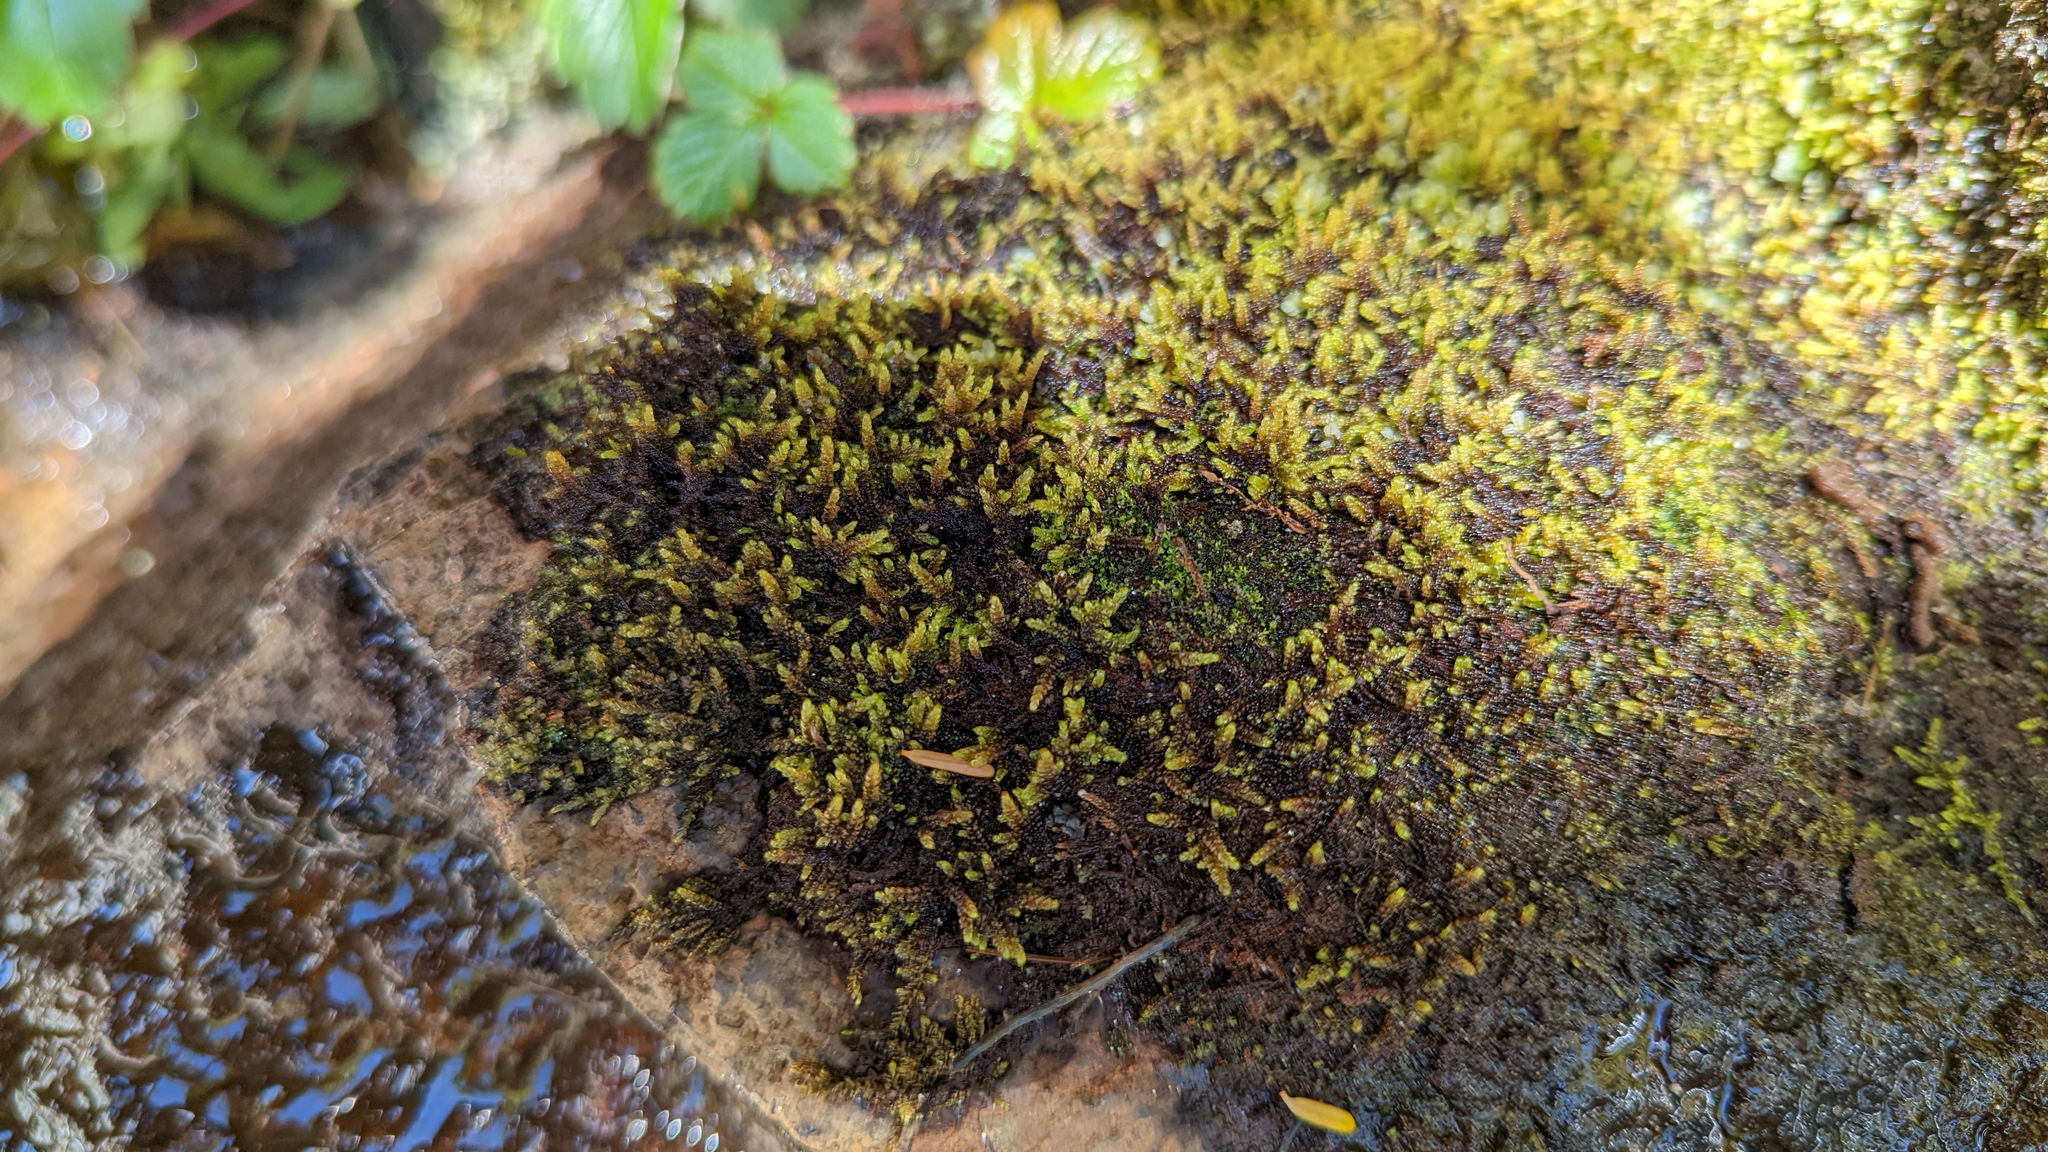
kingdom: Plantae
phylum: Bryophyta
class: Bryopsida
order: Hypnales
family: Pylaisiaceae
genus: Calliergonellopsis
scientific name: Calliergonellopsis dieckii
